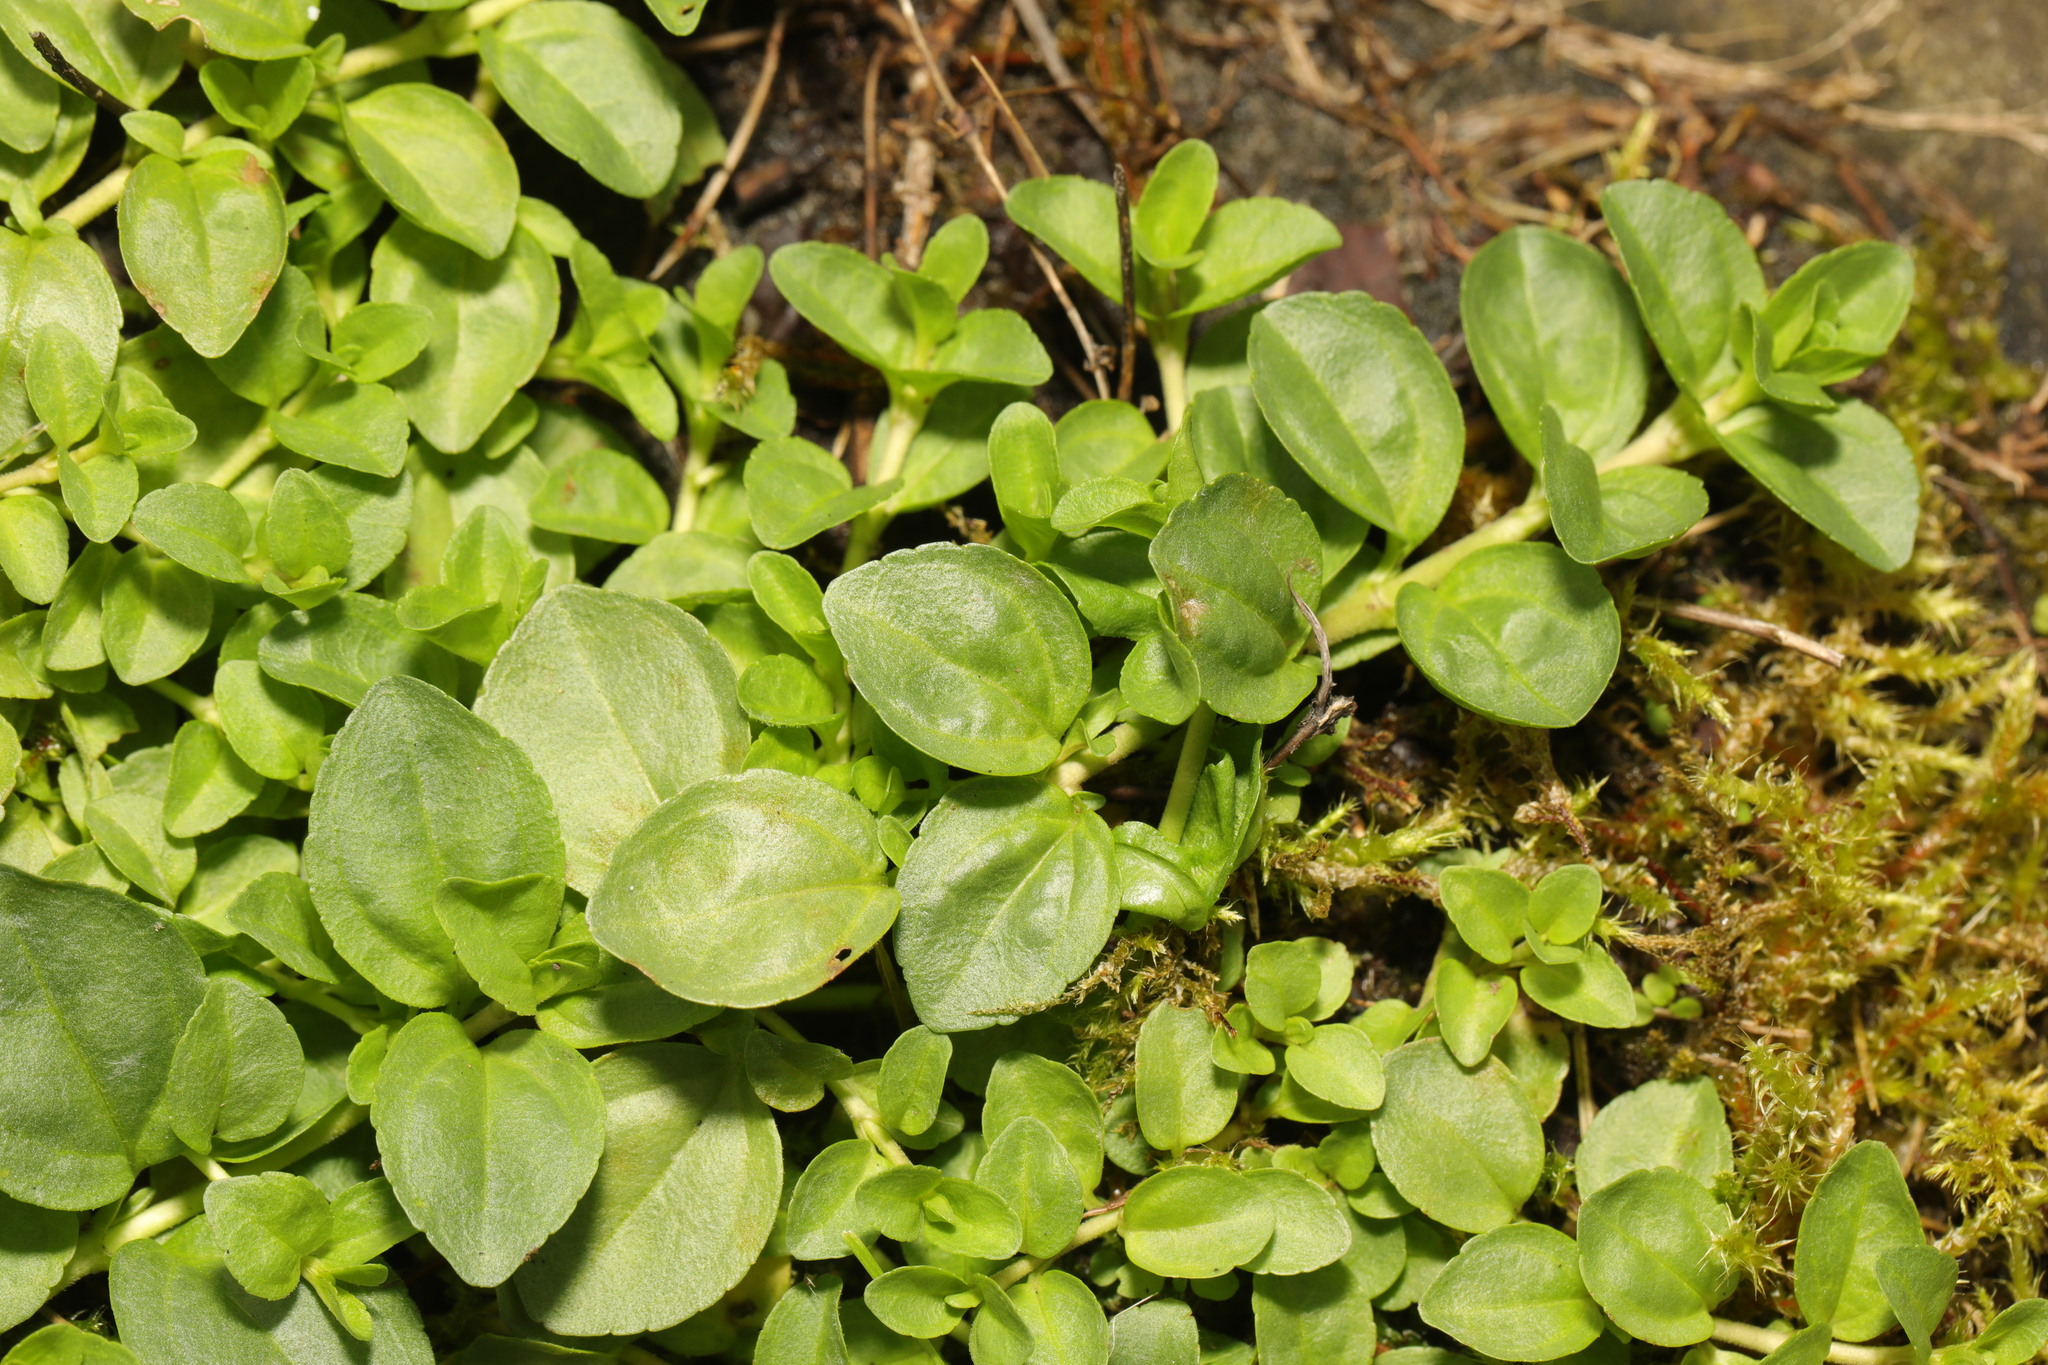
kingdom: Plantae
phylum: Tracheophyta
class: Magnoliopsida
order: Lamiales
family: Plantaginaceae
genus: Veronica
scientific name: Veronica serpyllifolia
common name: Thyme-leaved speedwell
